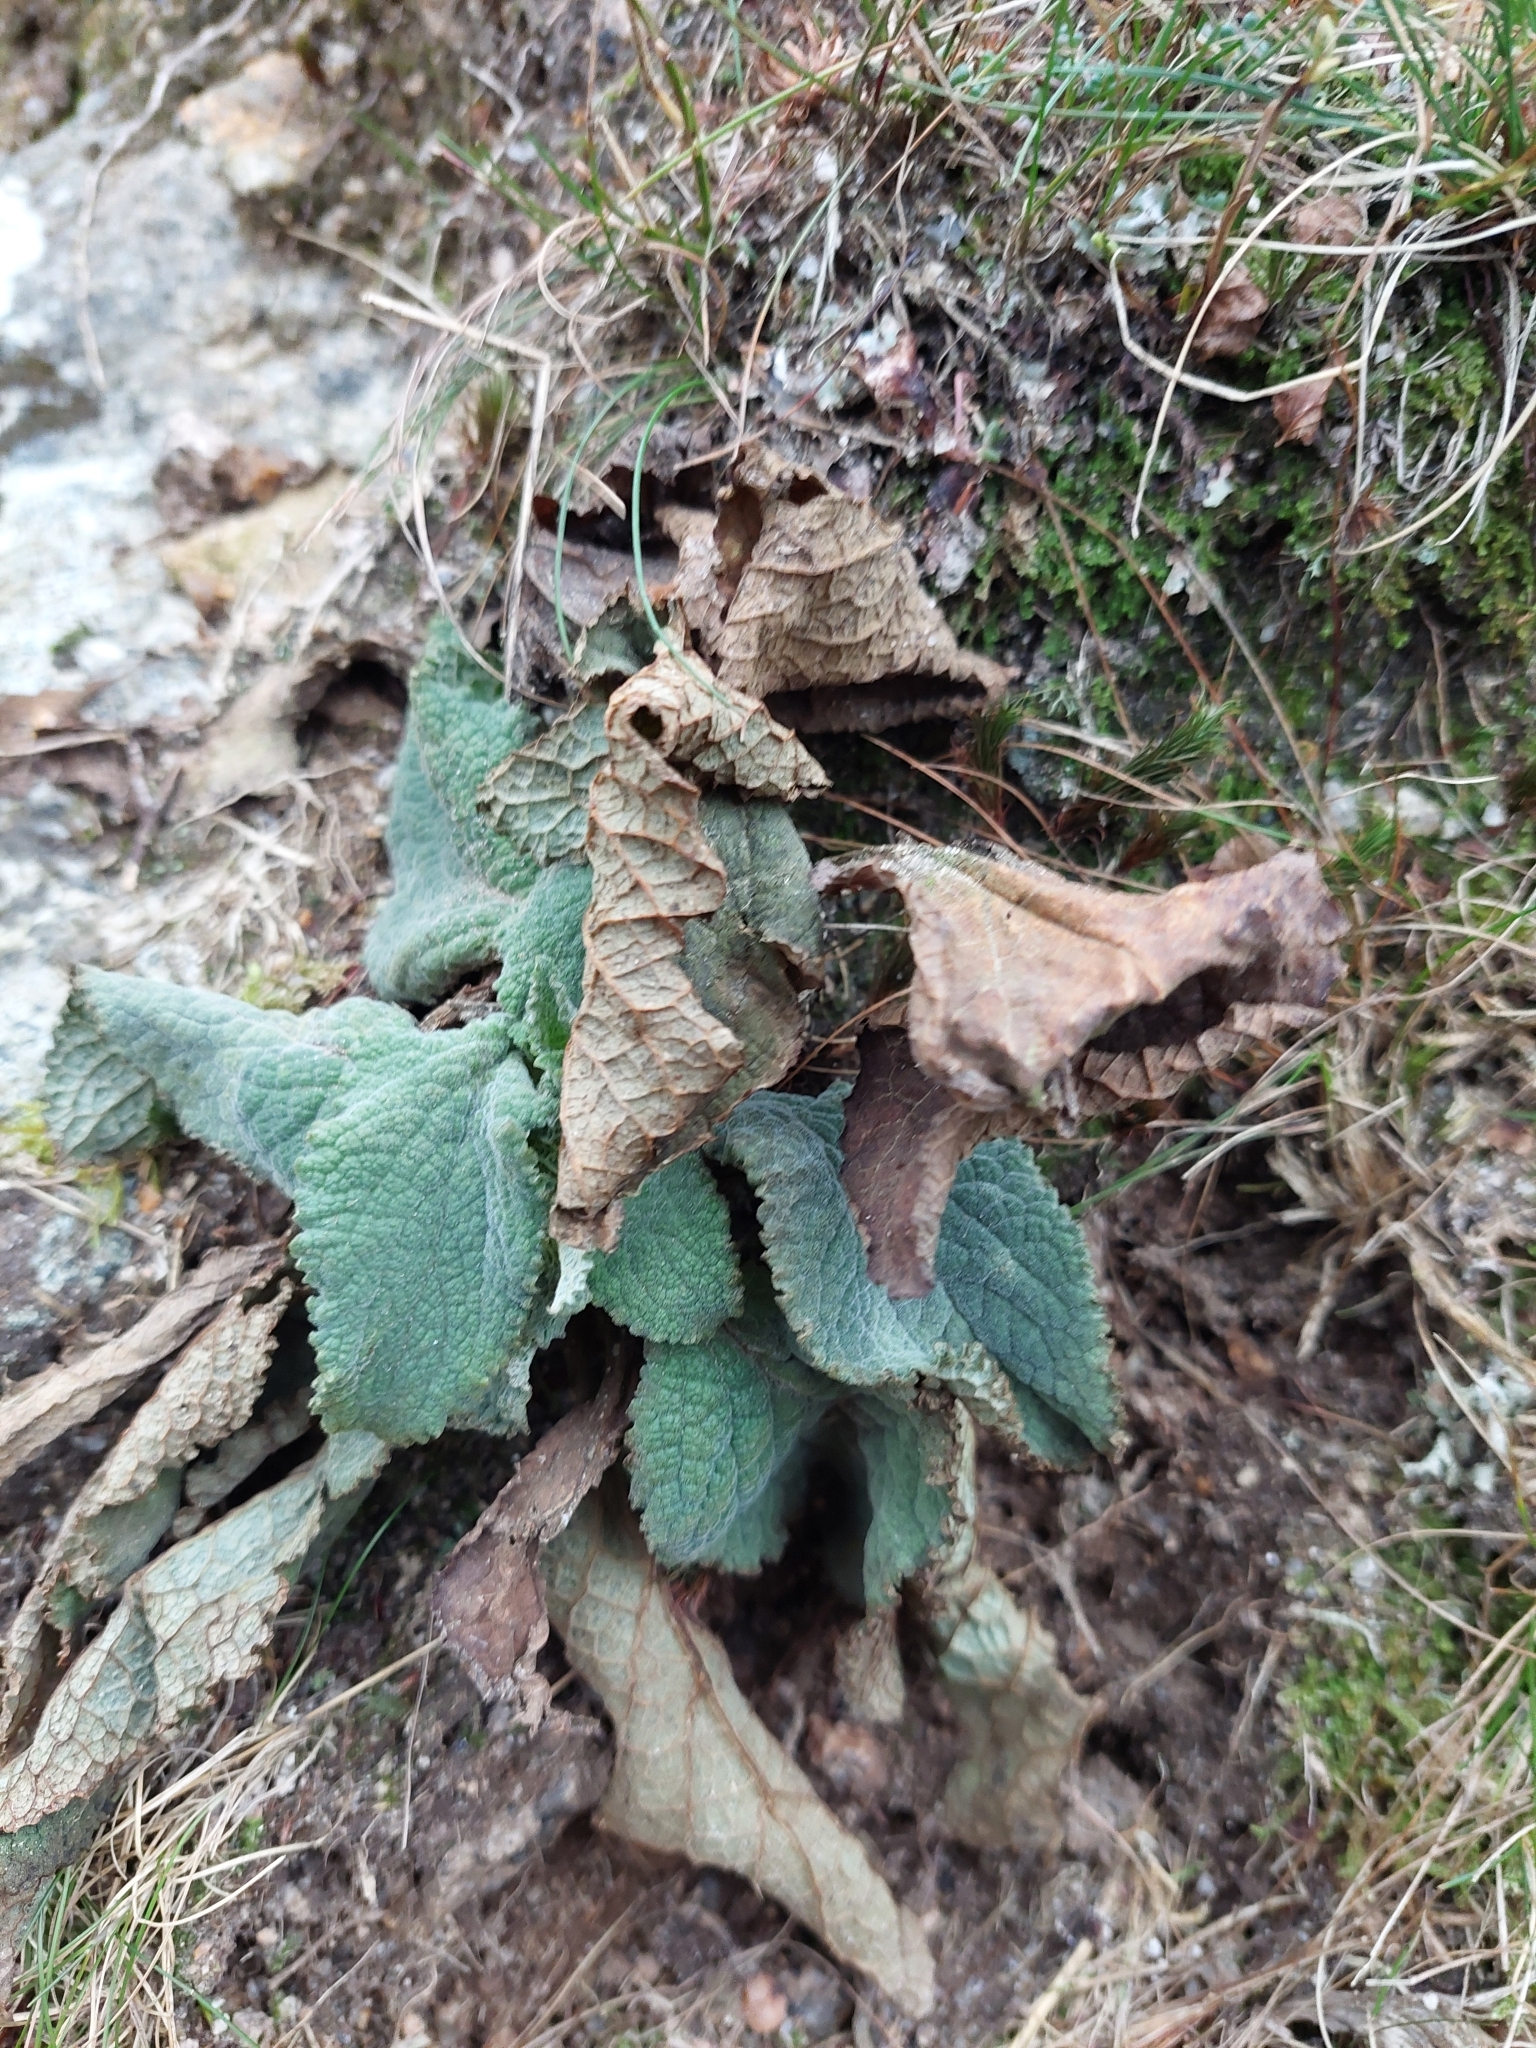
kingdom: Plantae
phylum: Tracheophyta
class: Magnoliopsida
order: Lamiales
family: Plantaginaceae
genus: Digitalis
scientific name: Digitalis purpurea
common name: Foxglove
